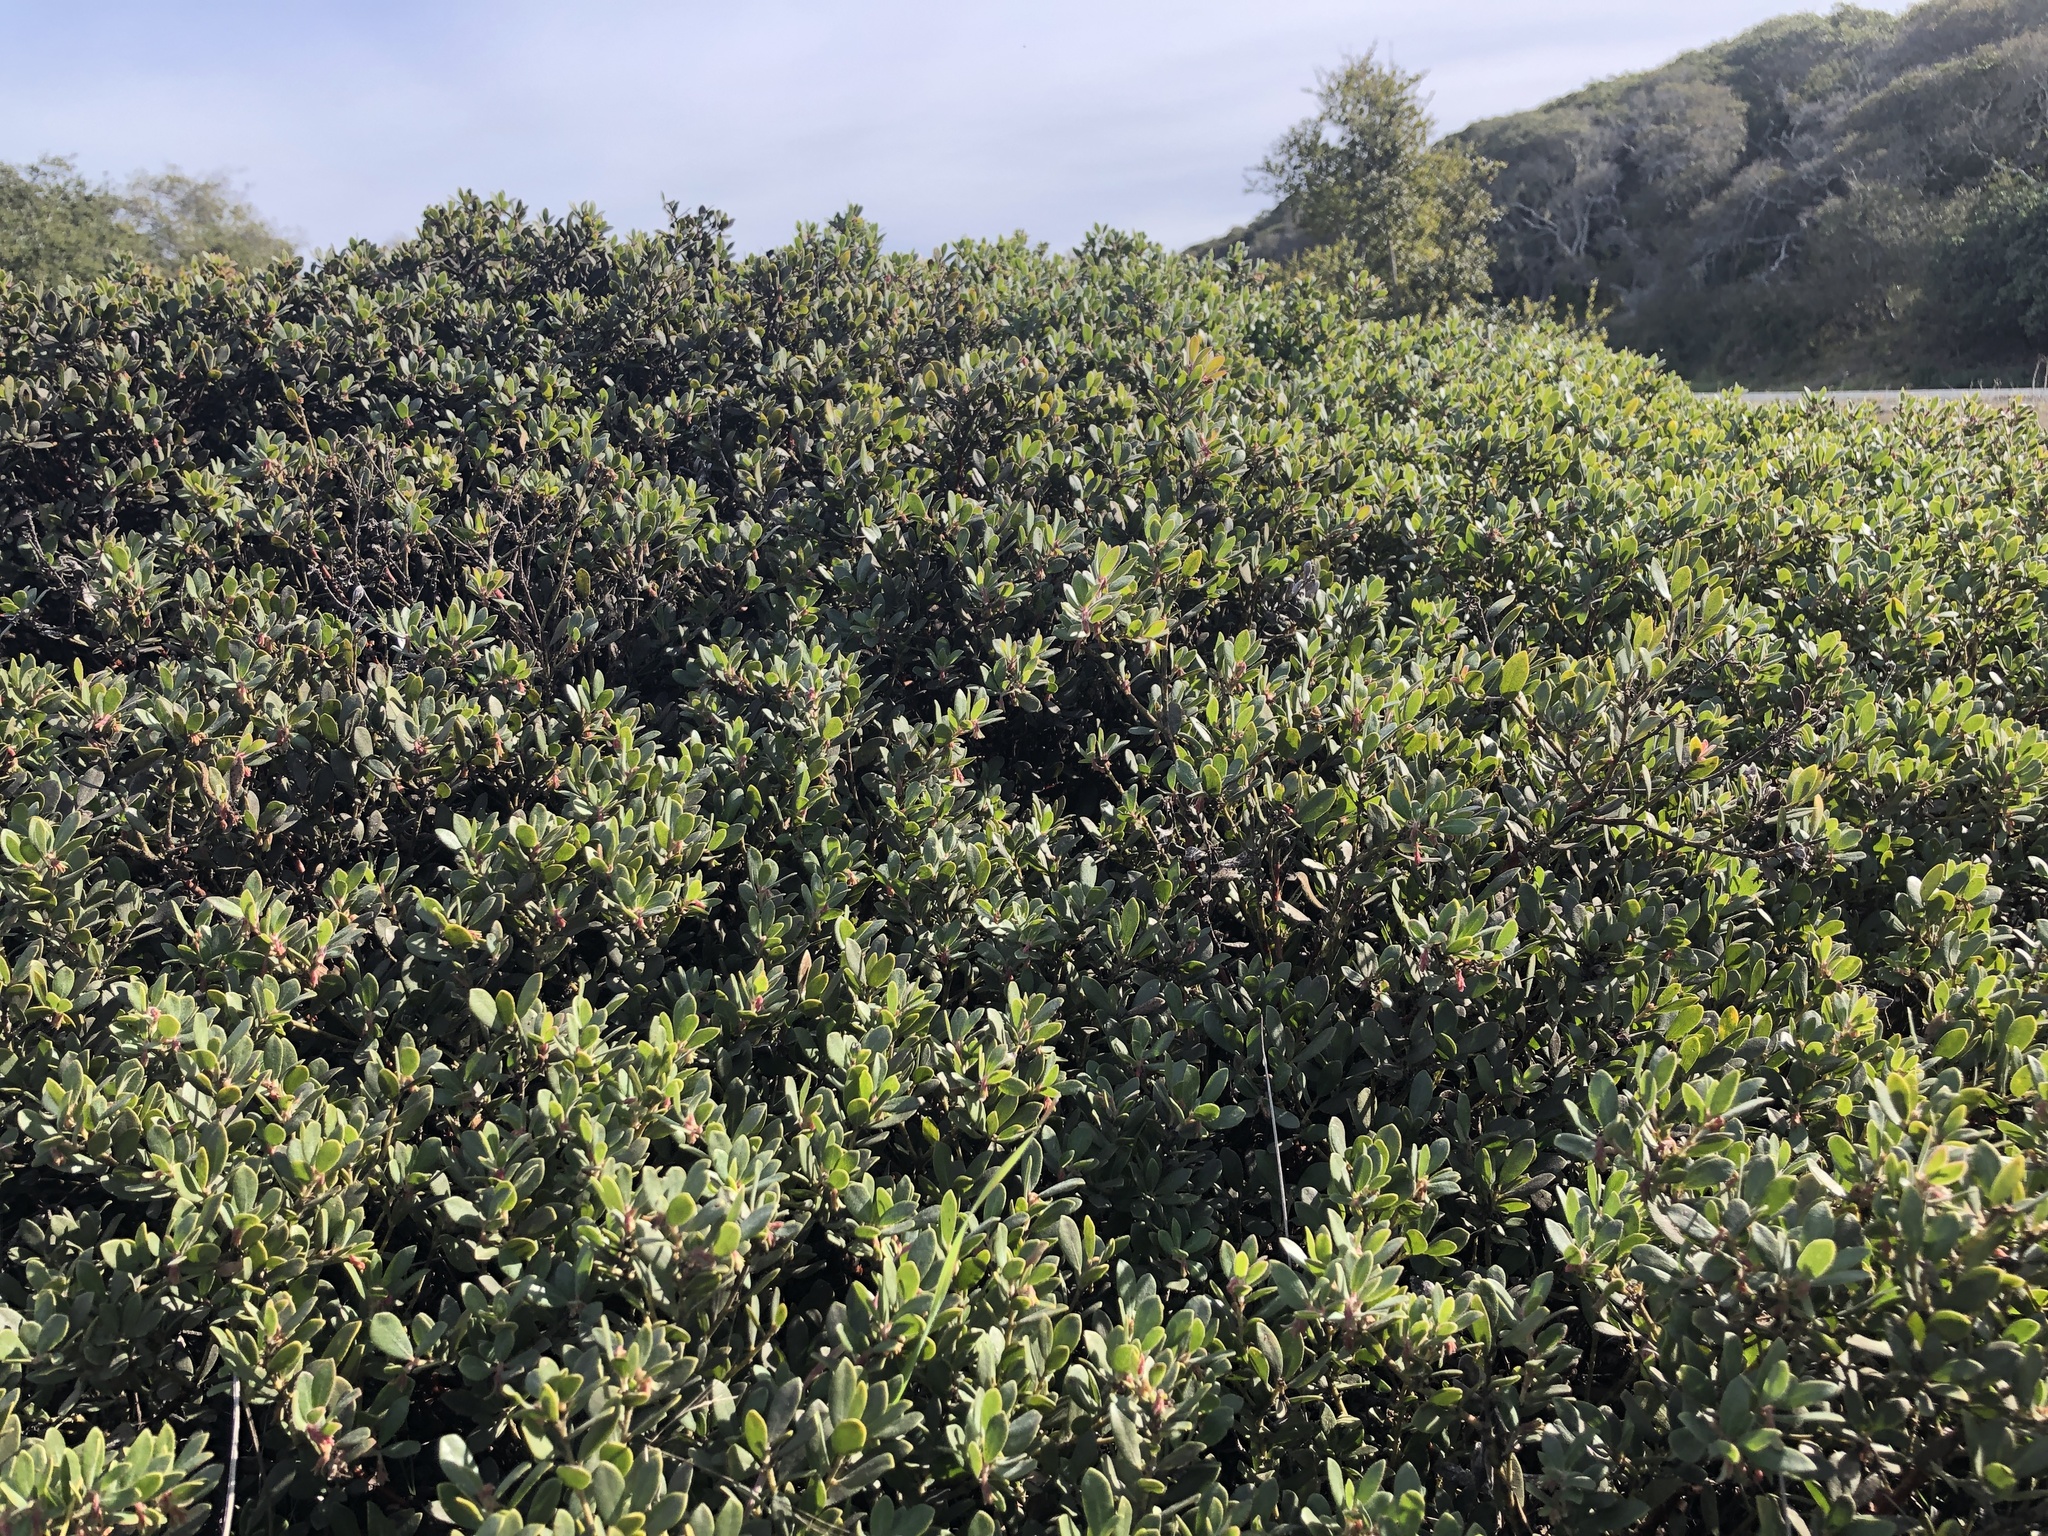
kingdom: Plantae
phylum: Tracheophyta
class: Magnoliopsida
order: Ericales
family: Ericaceae
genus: Arctostaphylos
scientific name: Arctostaphylos pumila
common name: Sandmat manzanita
